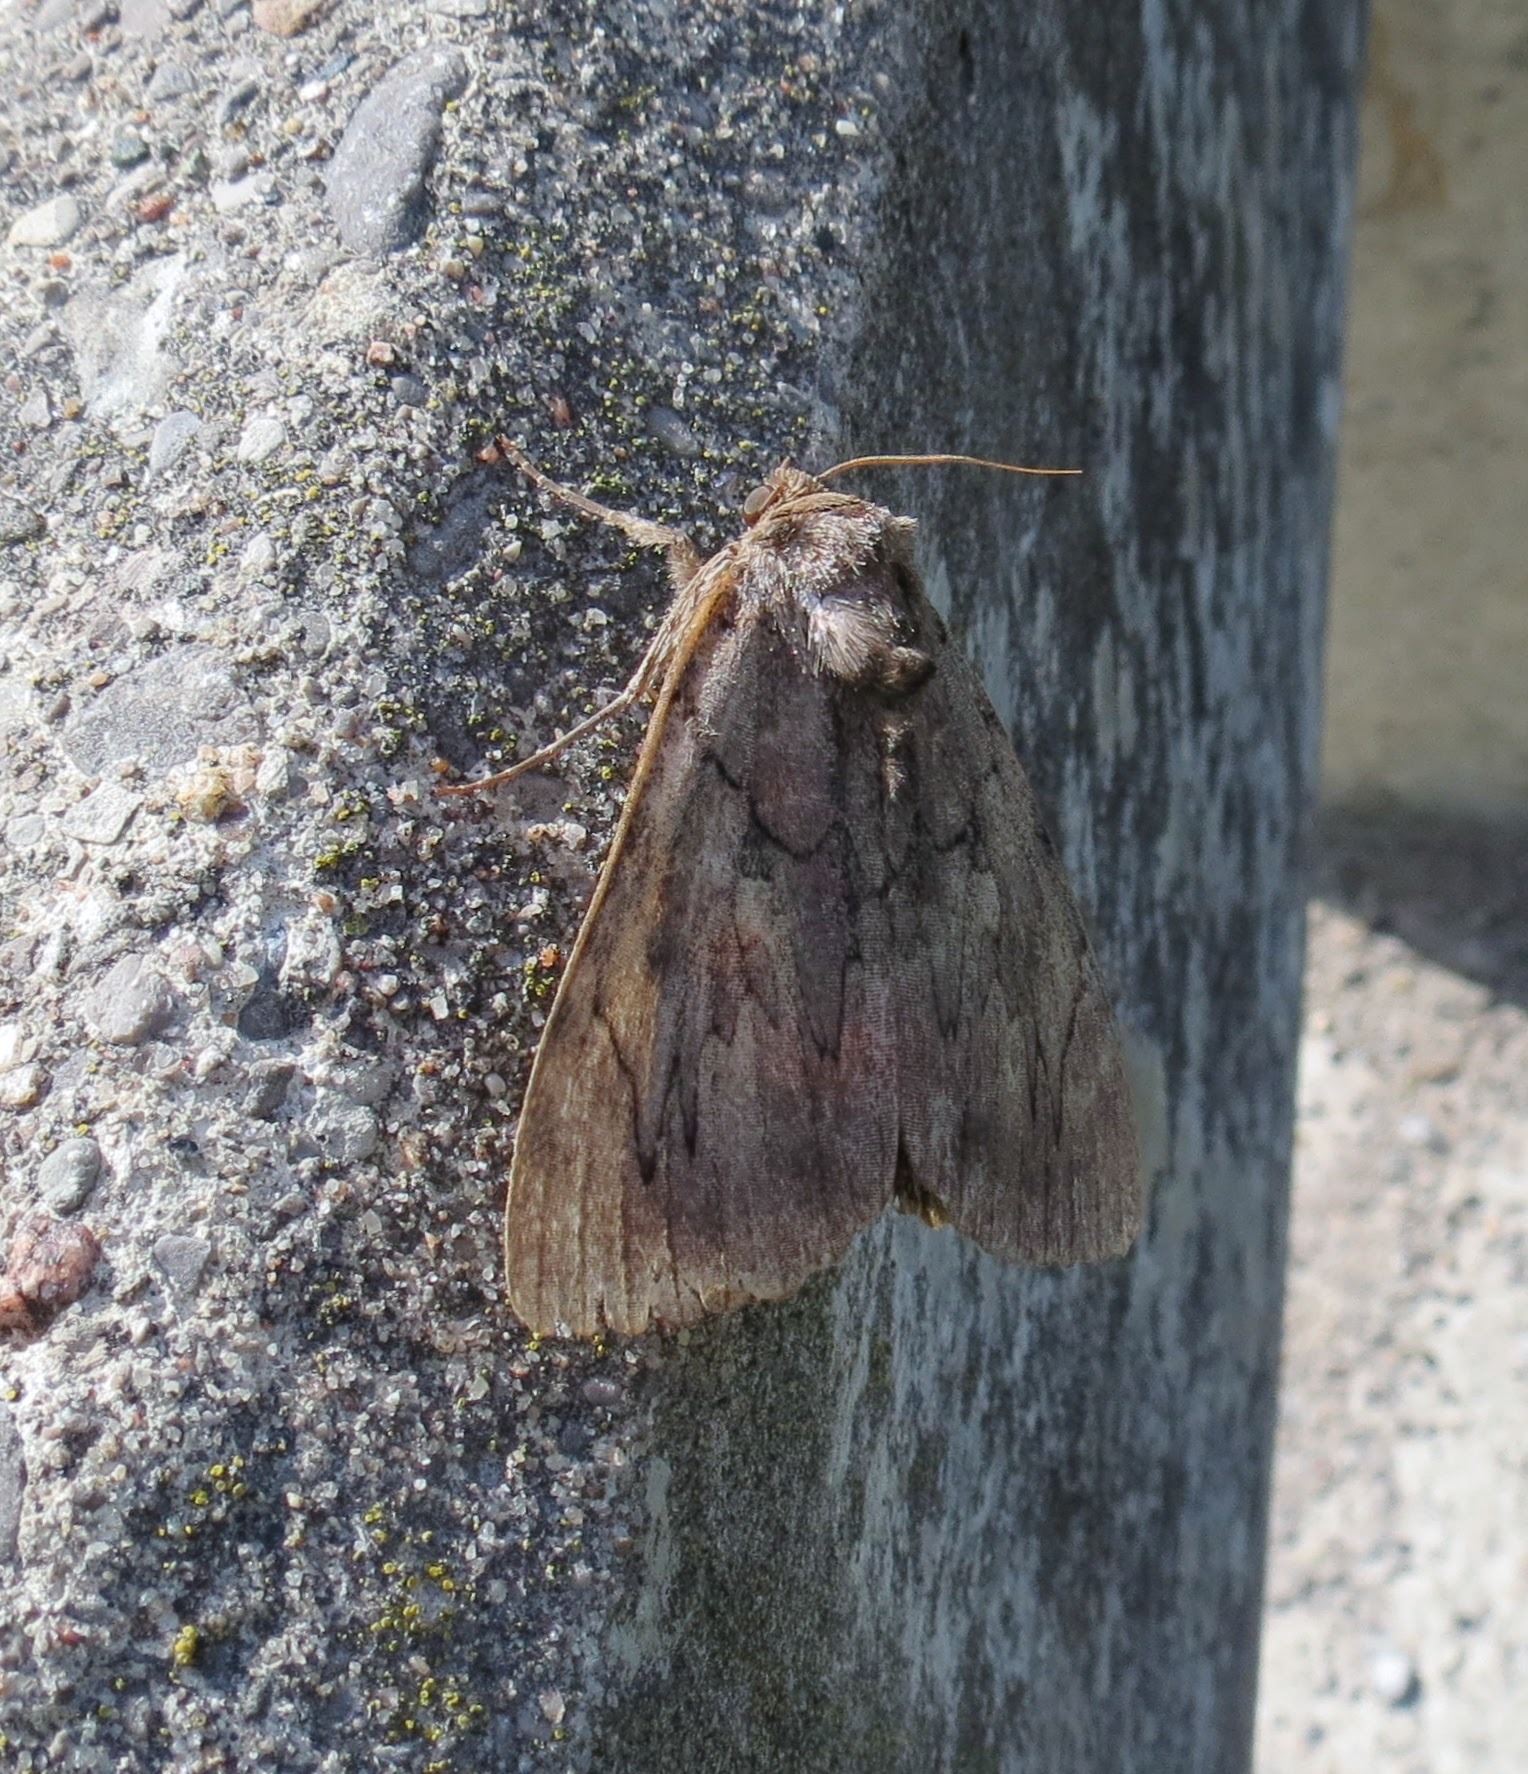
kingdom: Animalia
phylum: Arthropoda
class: Insecta
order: Lepidoptera
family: Erebidae
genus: Catocala
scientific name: Catocala cara
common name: Darling underwing
